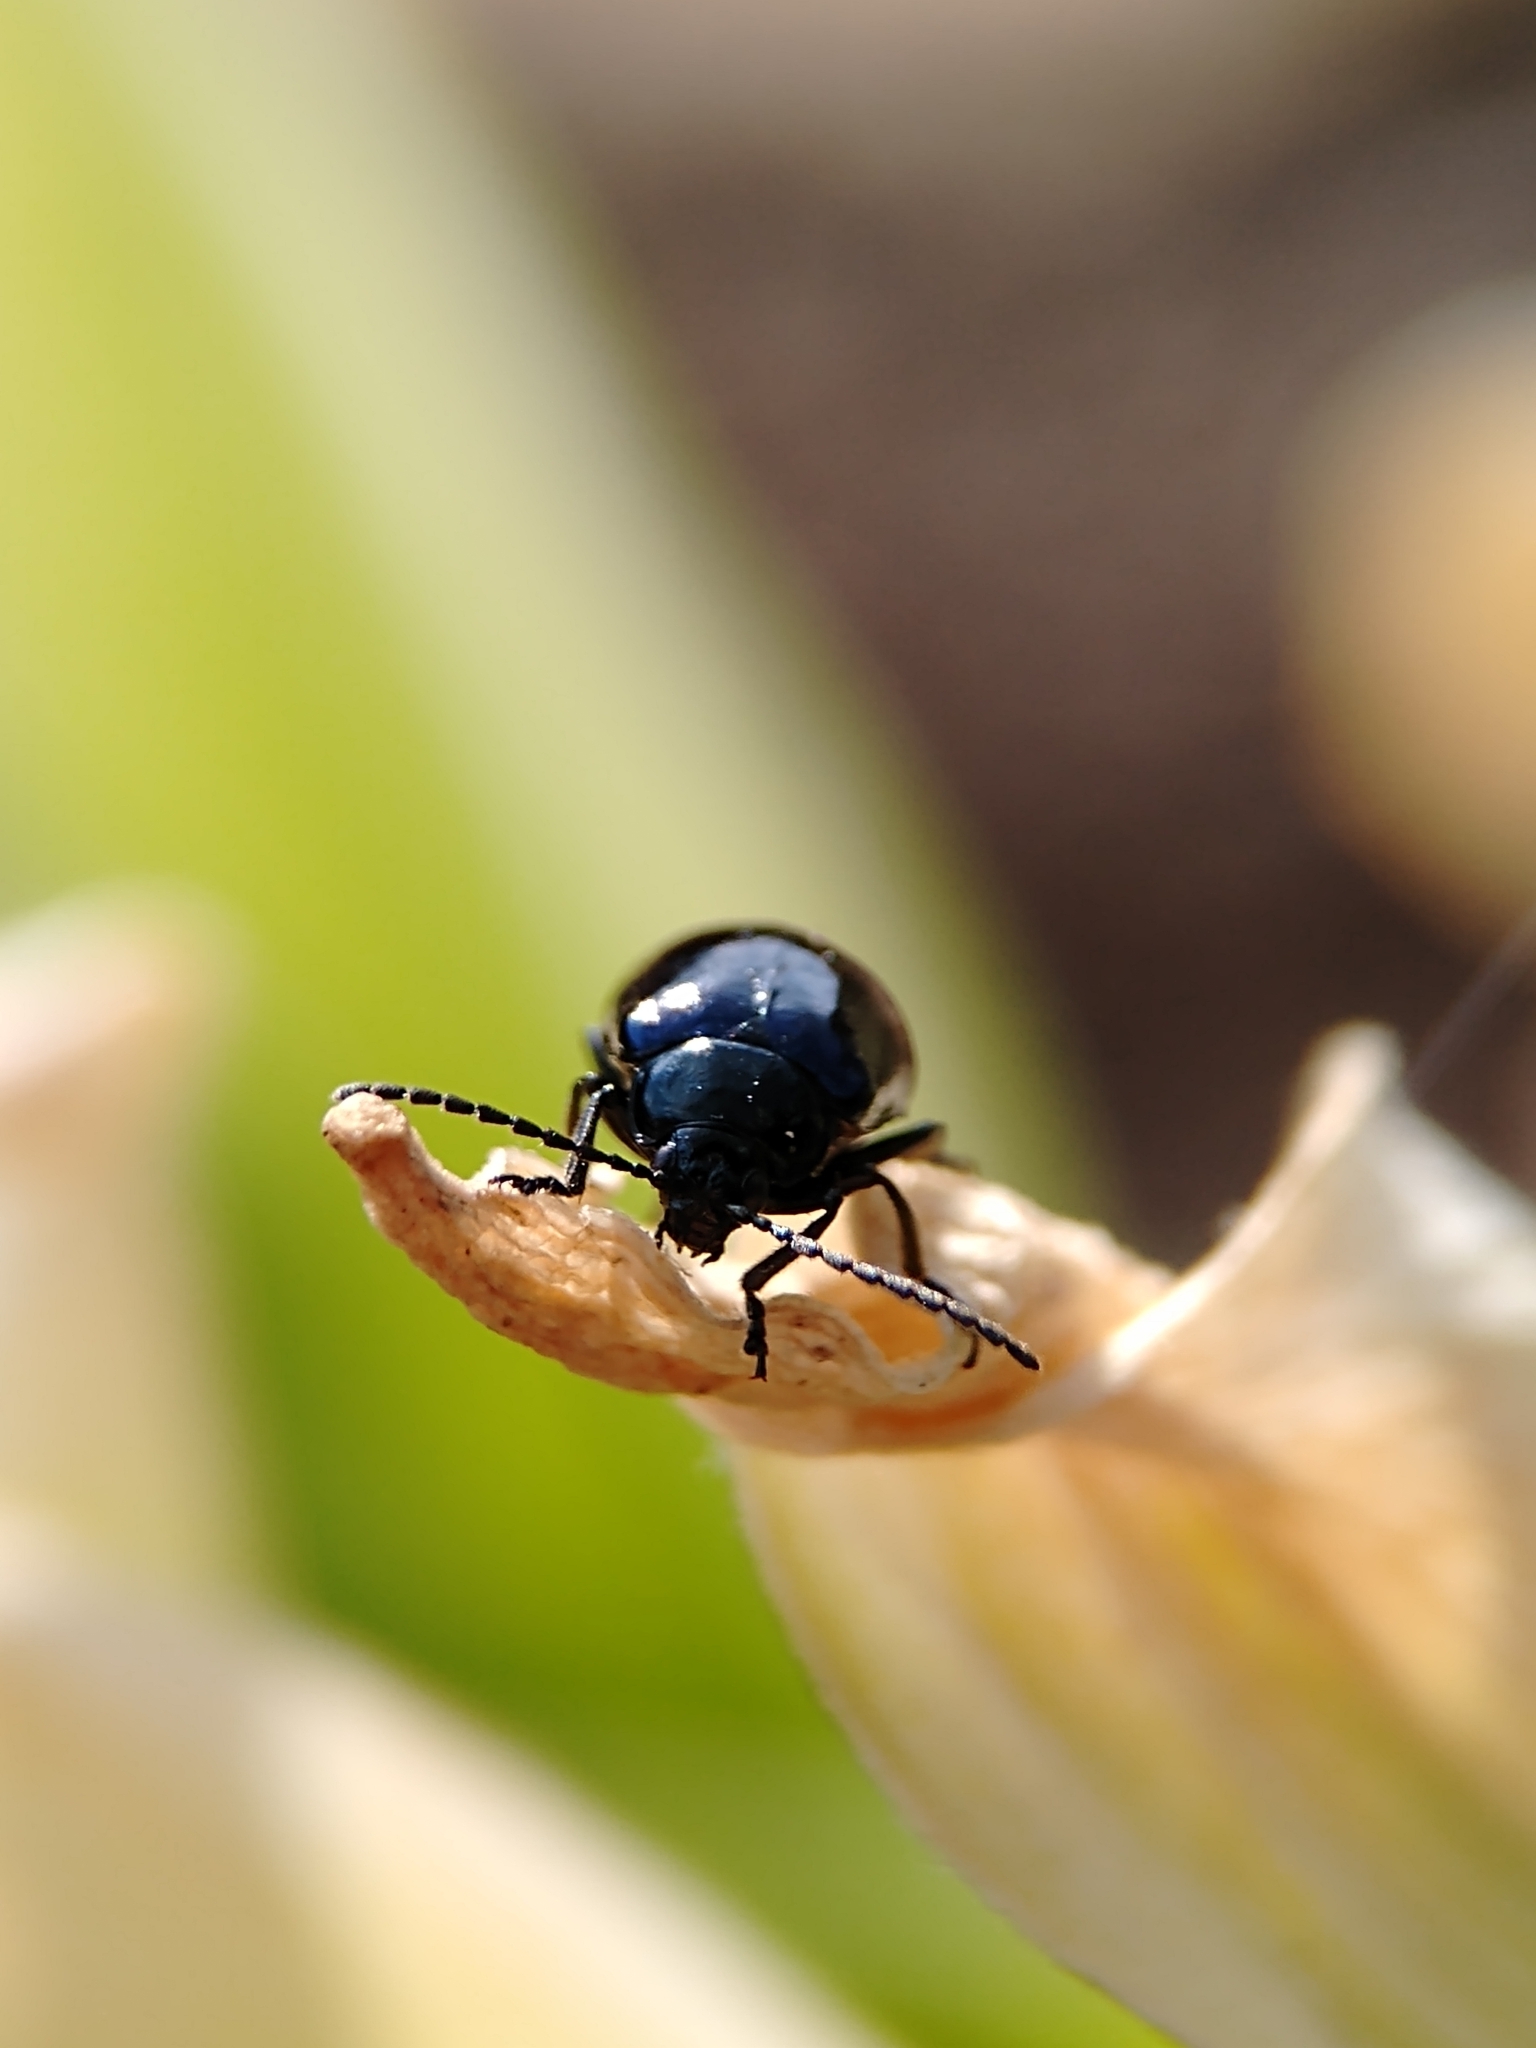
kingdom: Animalia
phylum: Arthropoda
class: Insecta
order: Coleoptera
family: Chrysomelidae
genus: Agelastica
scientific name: Agelastica alni
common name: Alder leaf beetle
